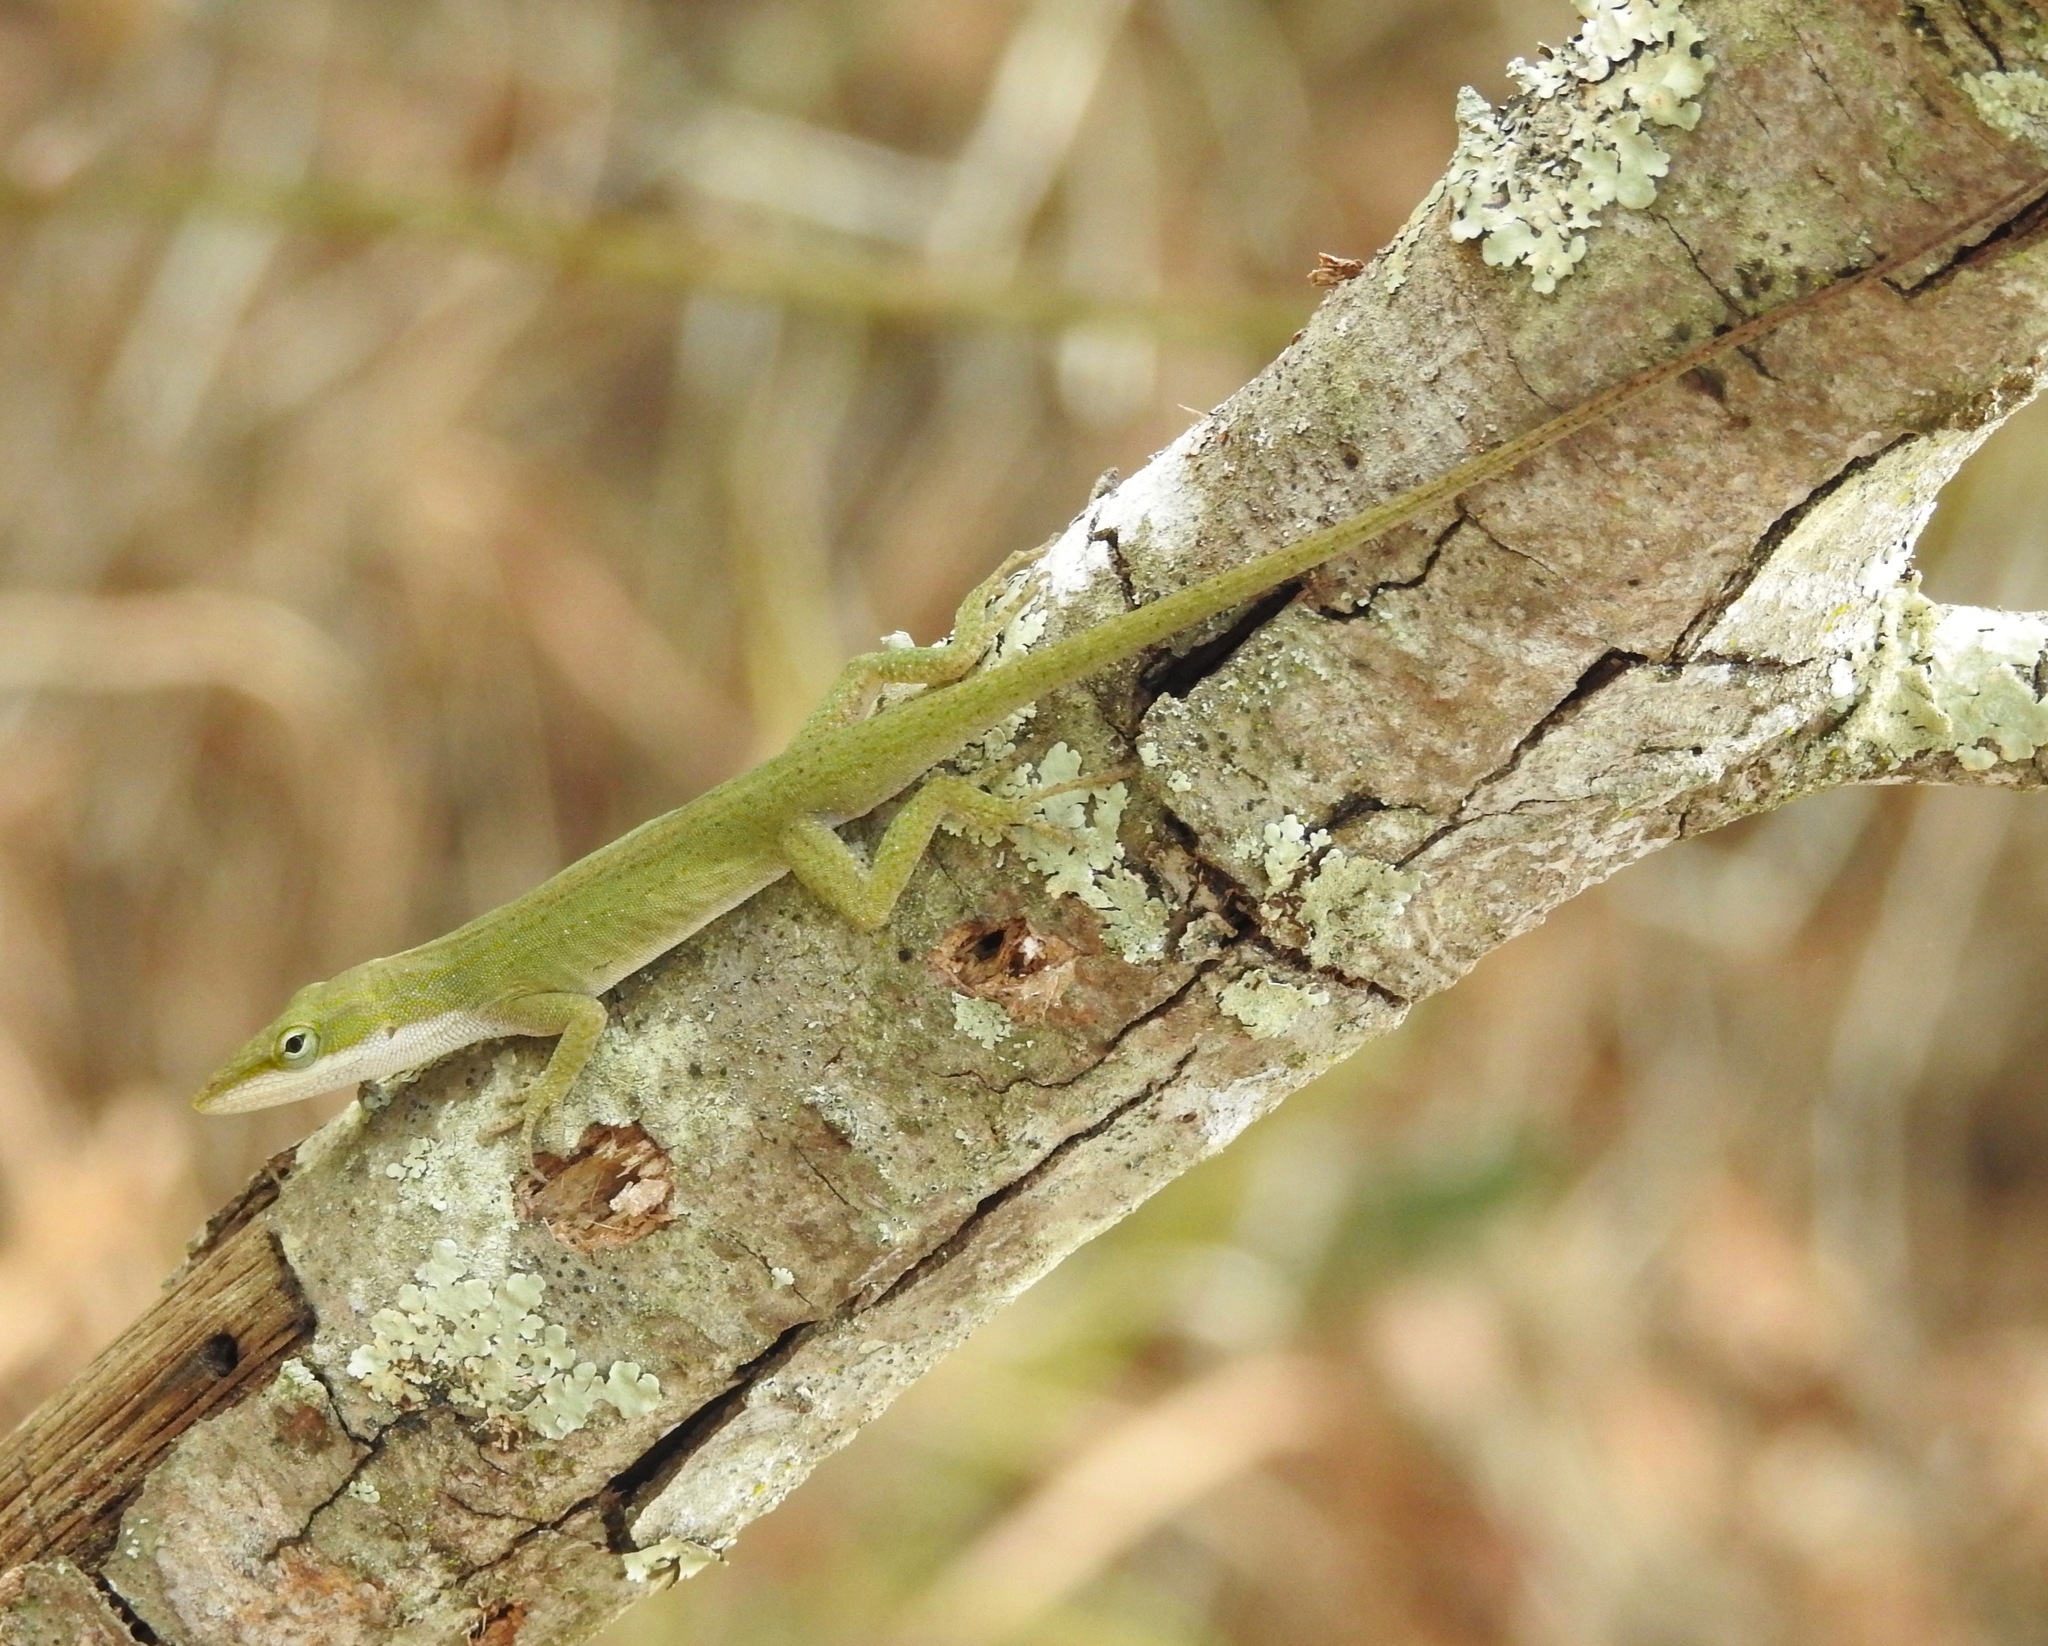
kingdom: Animalia
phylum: Chordata
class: Squamata
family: Dactyloidae
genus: Anolis
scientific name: Anolis carolinensis
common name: Green anole
